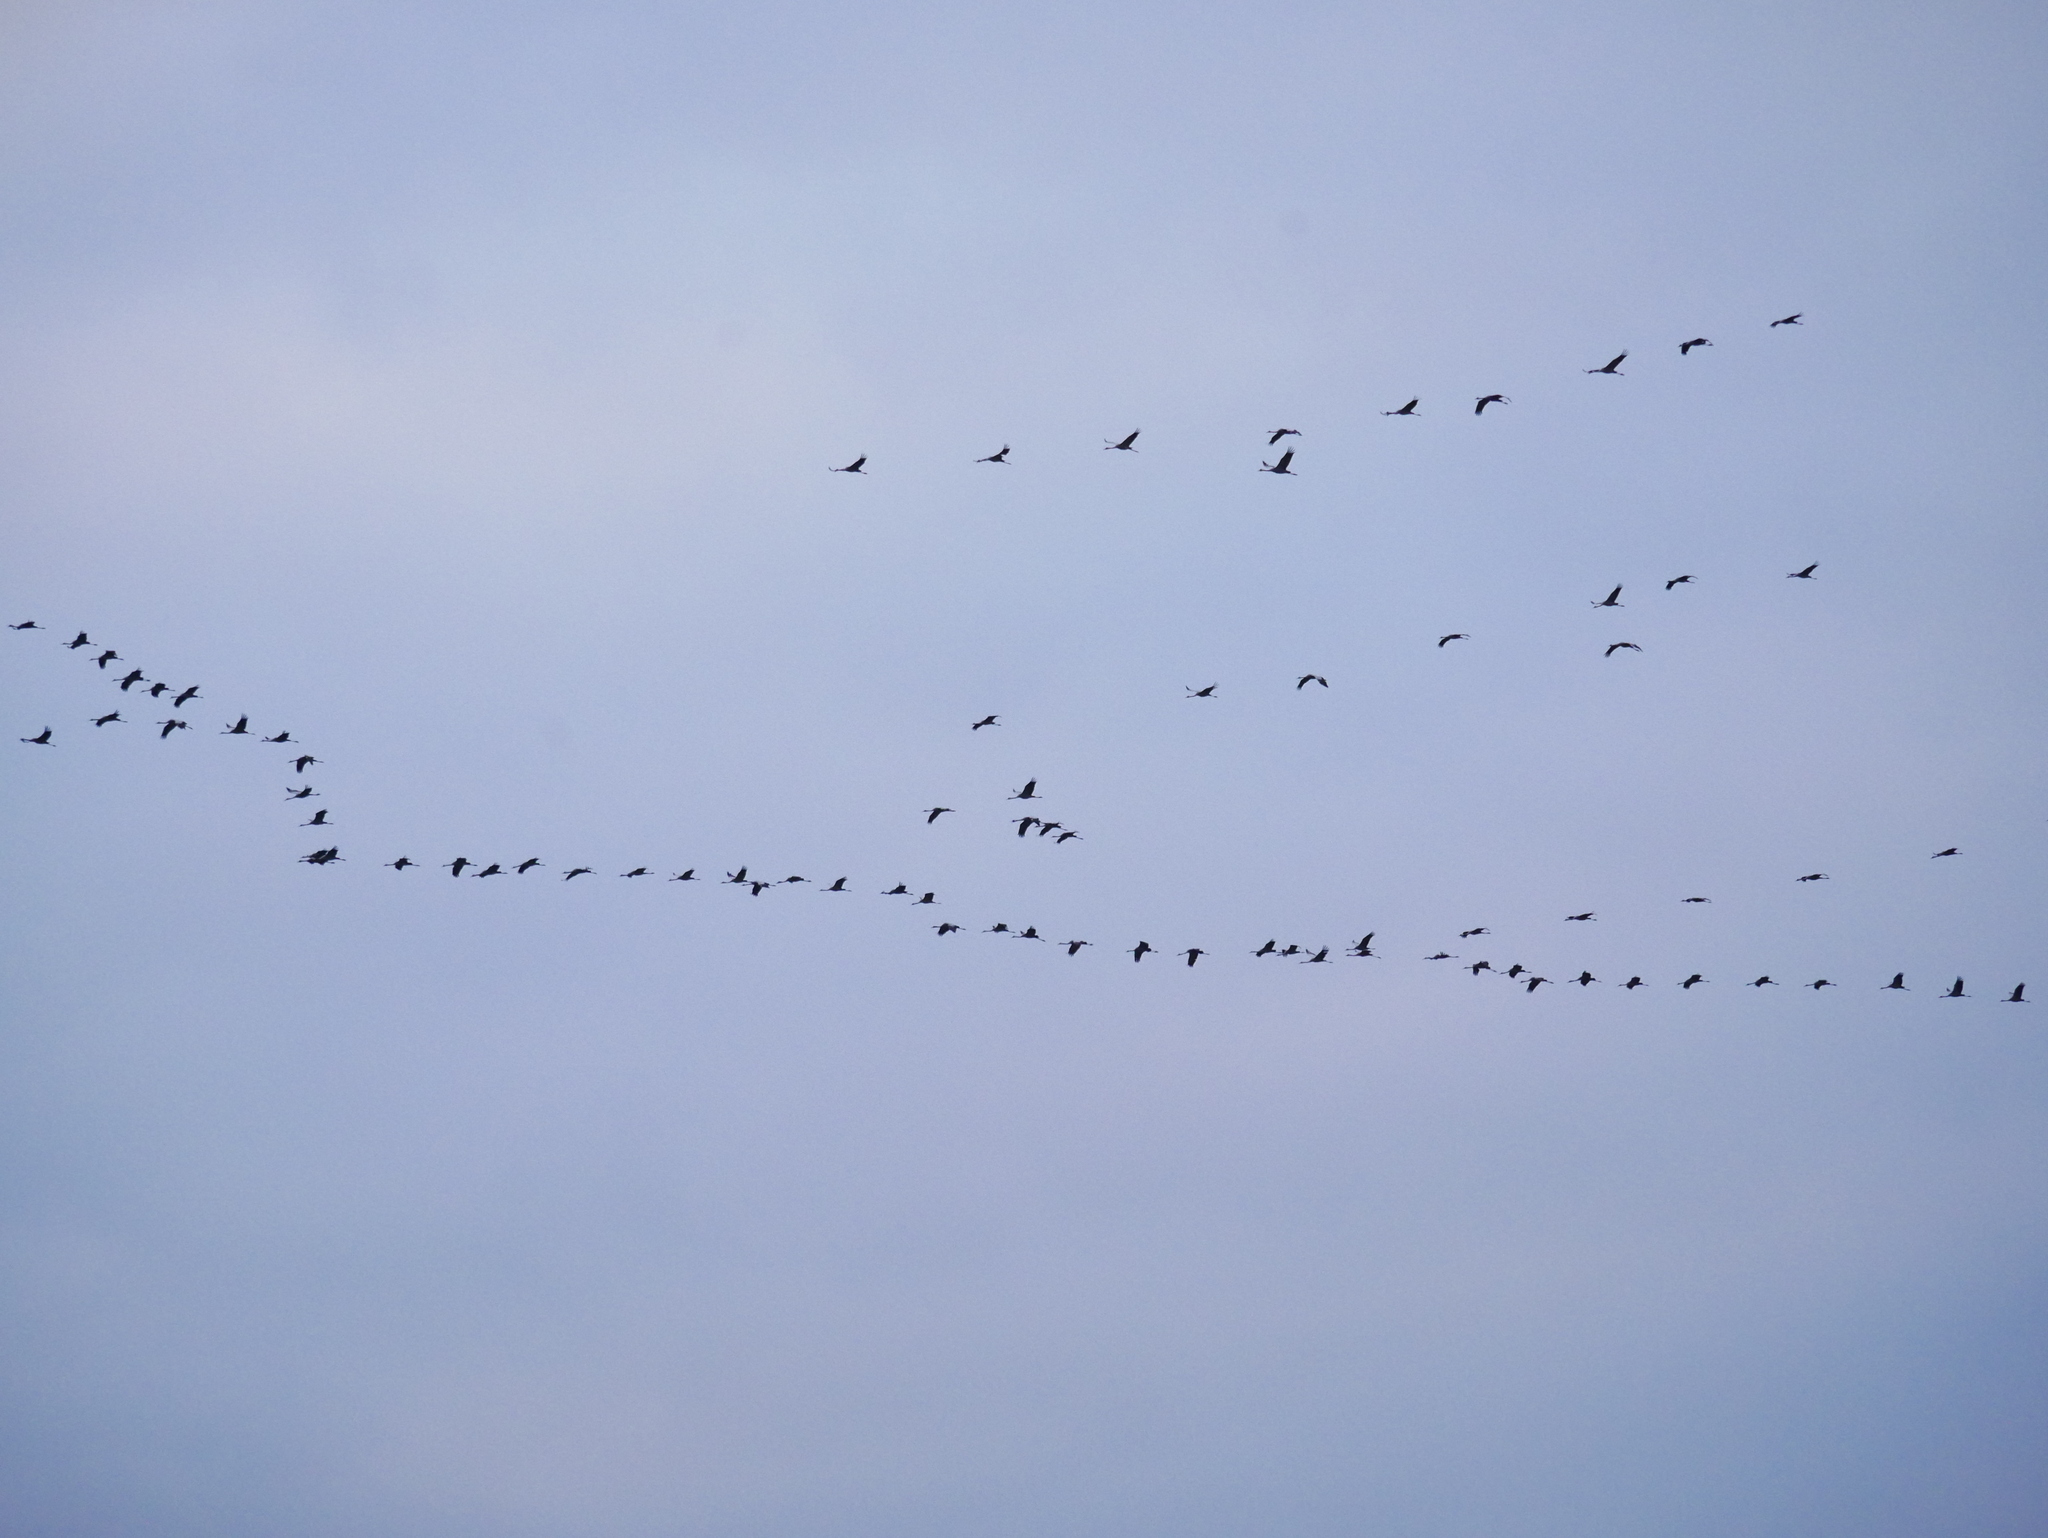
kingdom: Animalia
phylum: Chordata
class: Aves
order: Gruiformes
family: Gruidae
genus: Grus
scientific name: Grus grus
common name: Common crane
